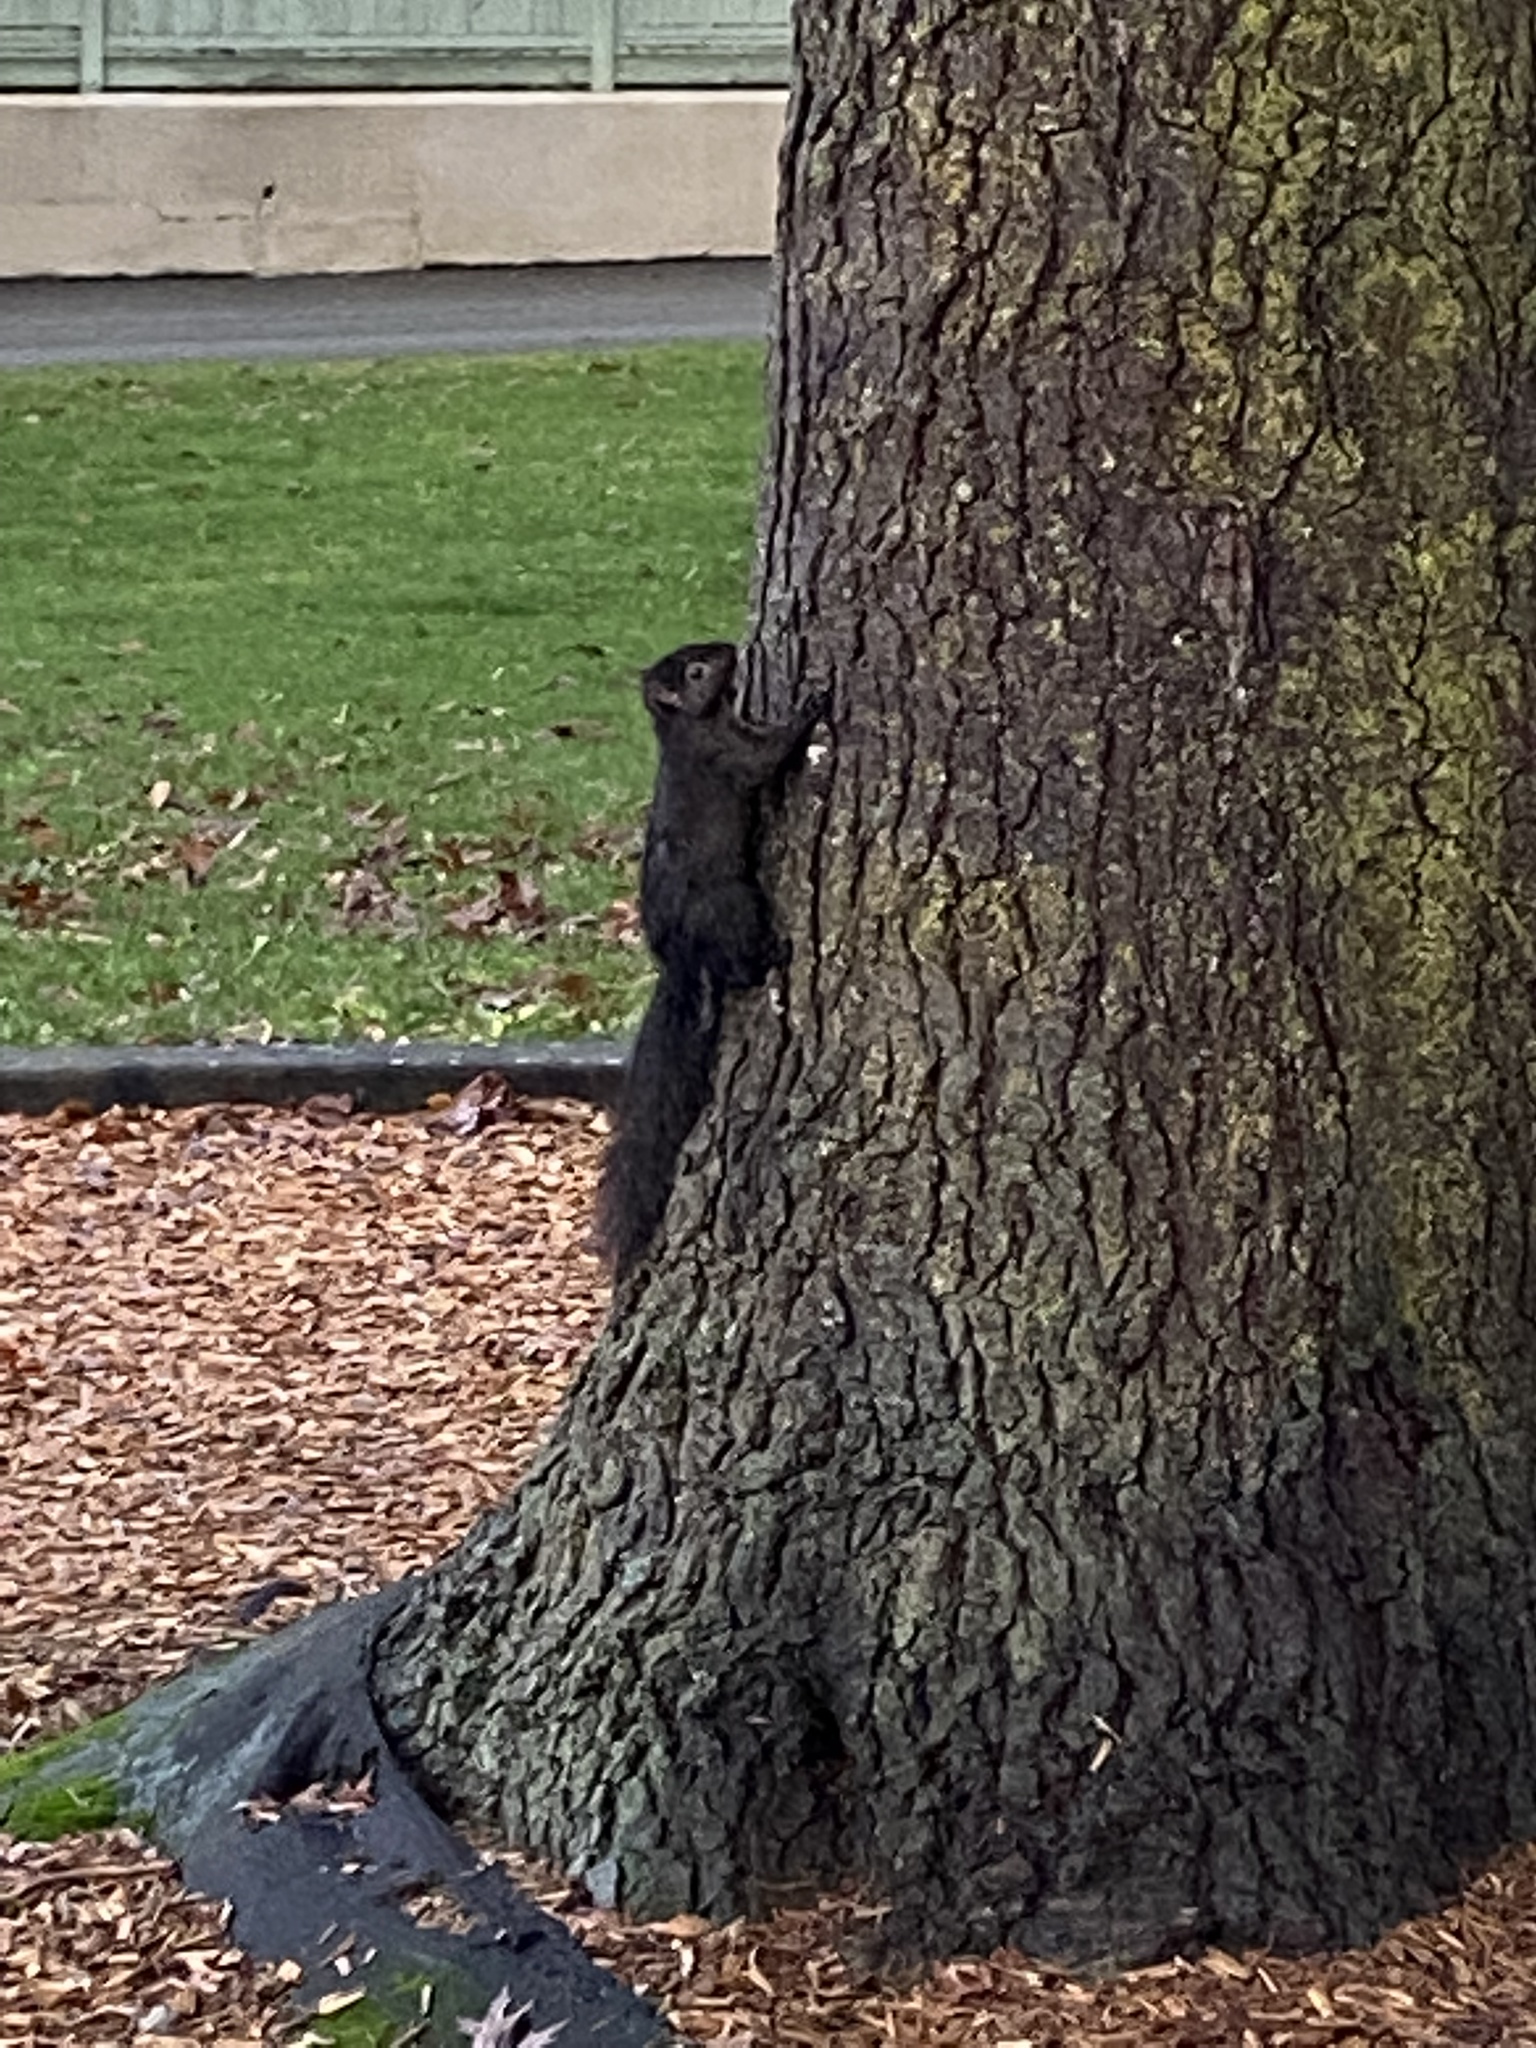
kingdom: Animalia
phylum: Chordata
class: Mammalia
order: Rodentia
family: Sciuridae
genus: Sciurus
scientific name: Sciurus carolinensis
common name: Eastern gray squirrel
